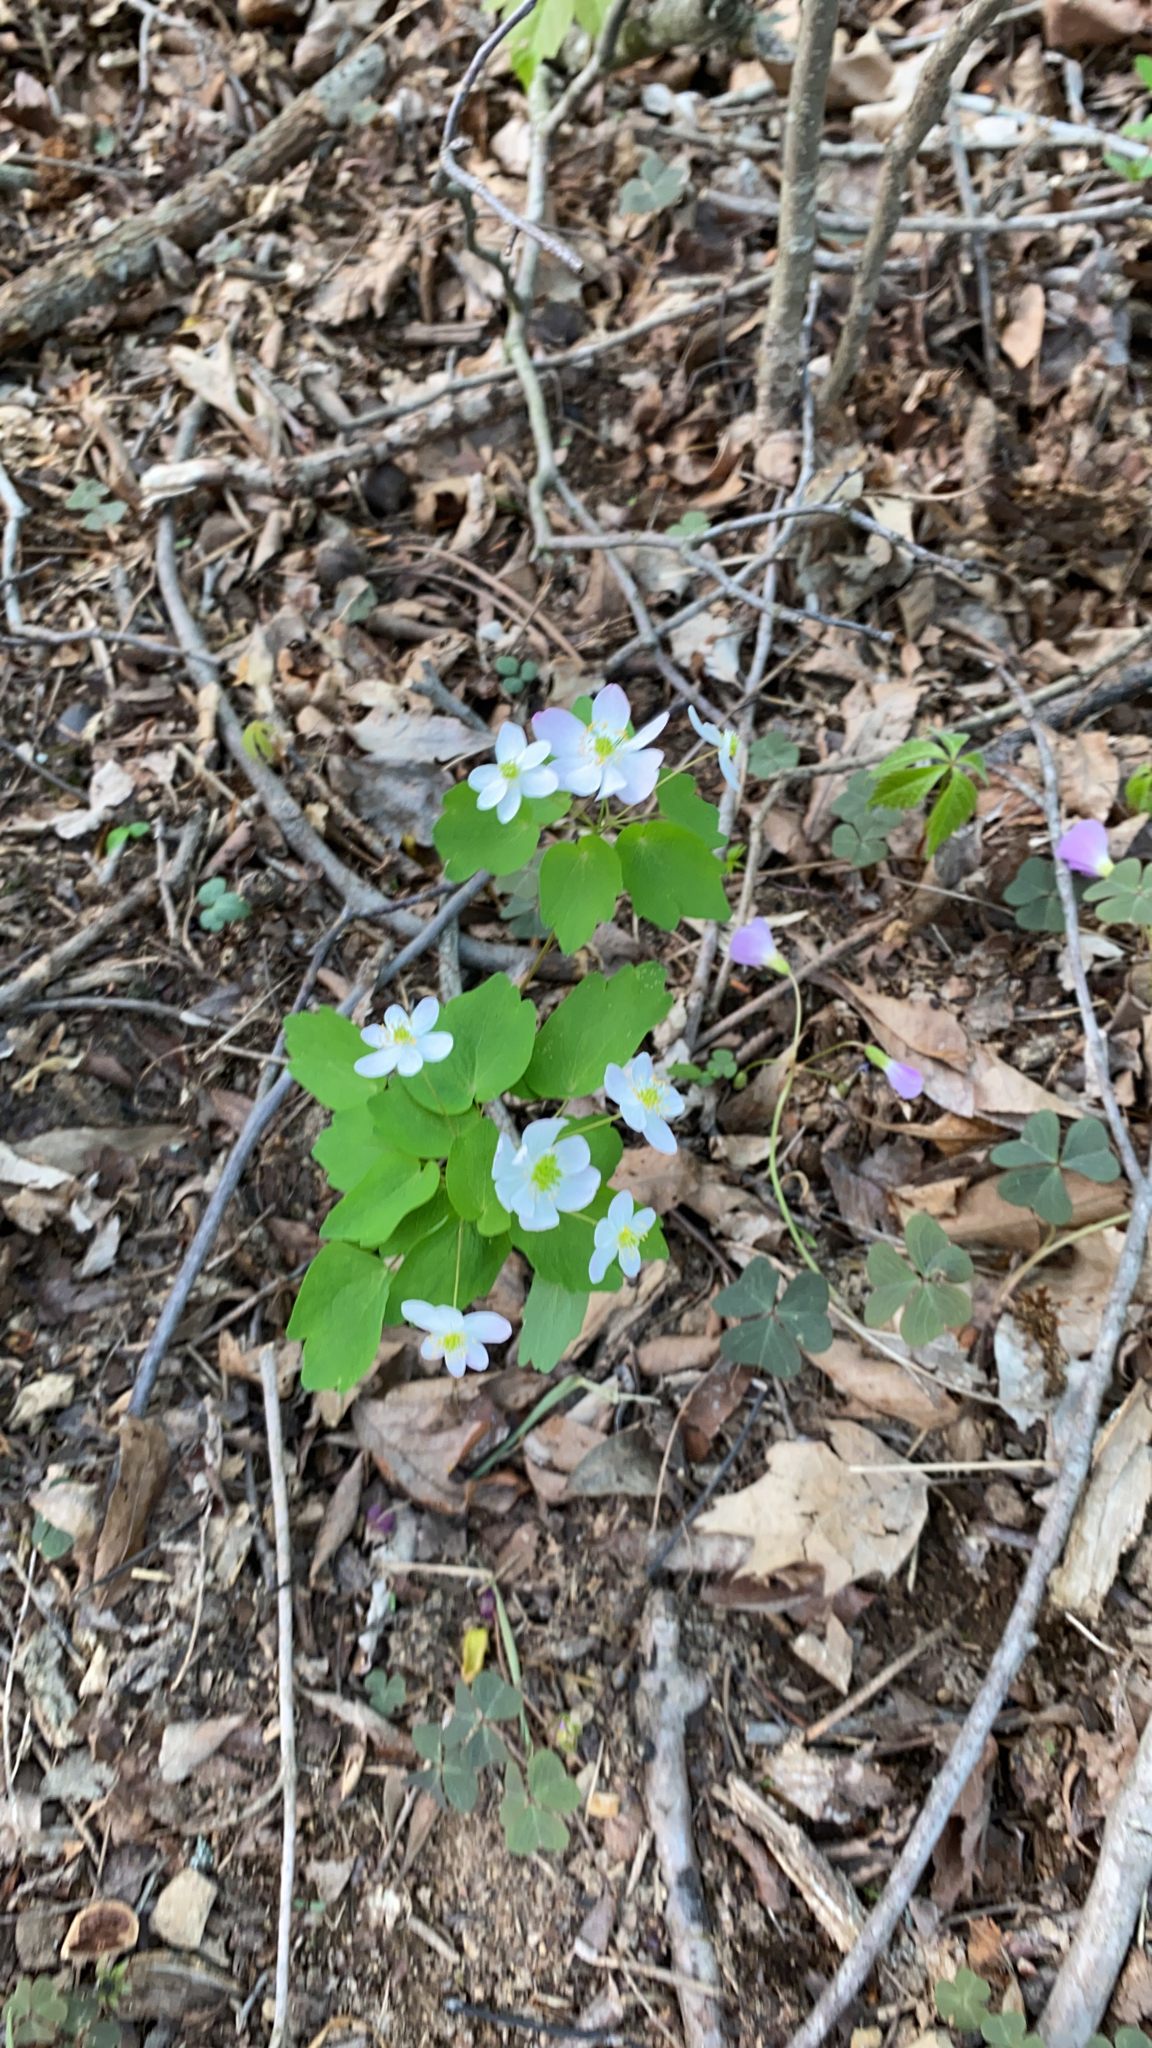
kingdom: Plantae
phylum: Tracheophyta
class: Magnoliopsida
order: Ranunculales
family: Ranunculaceae
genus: Thalictrum
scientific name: Thalictrum thalictroides
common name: Rue-anemone
